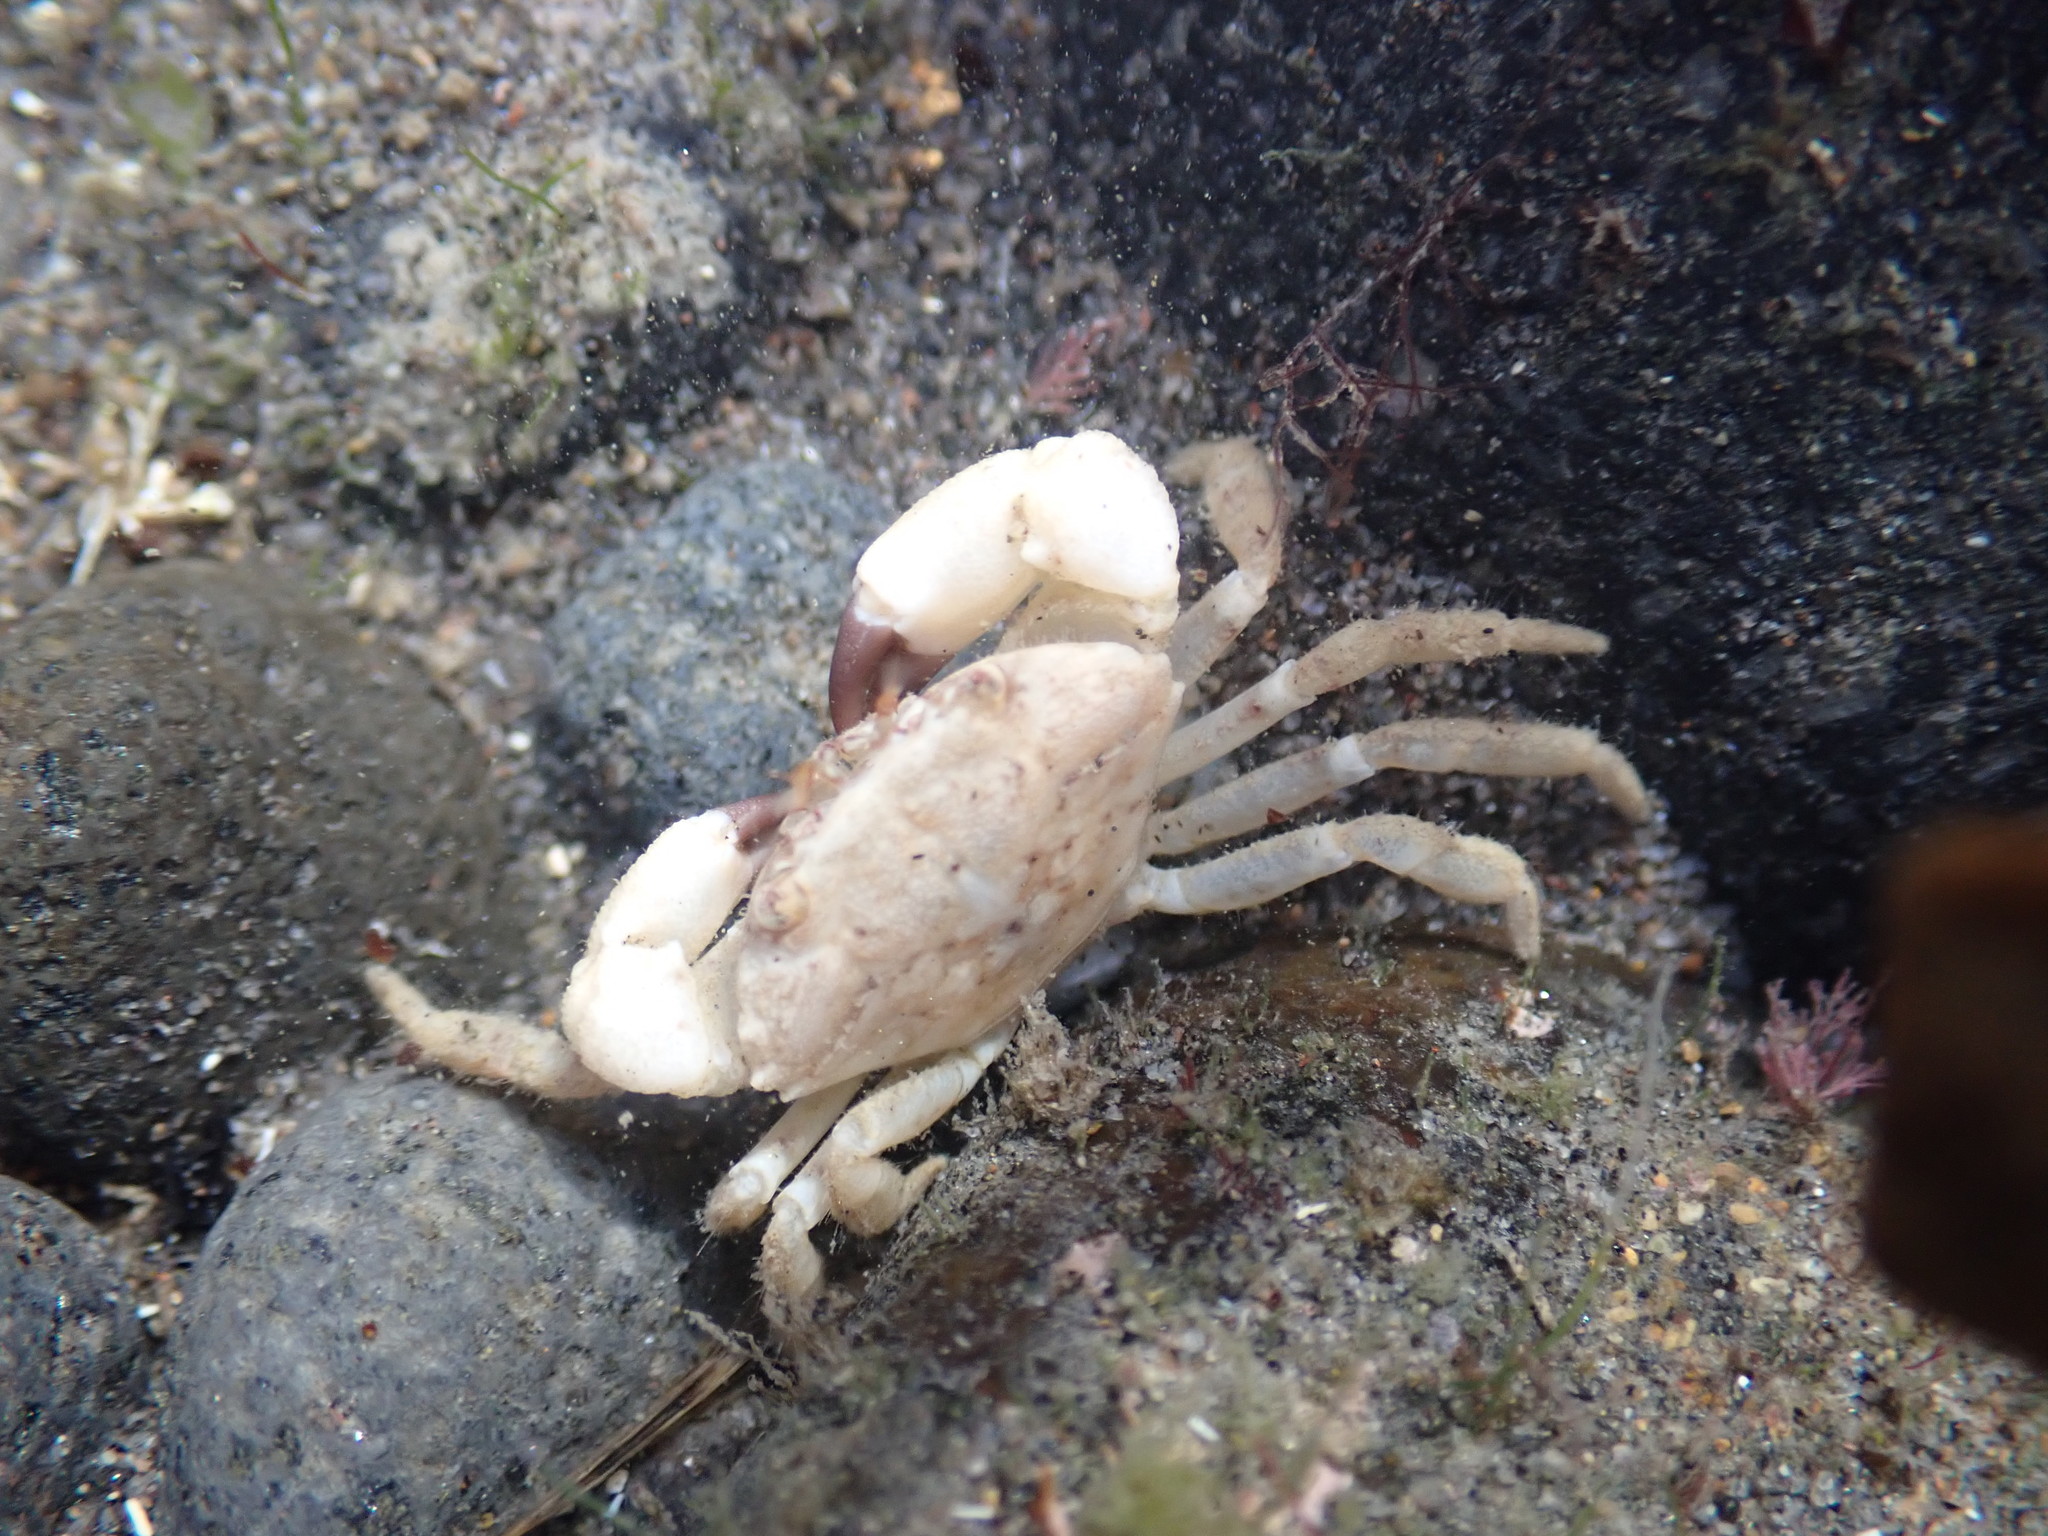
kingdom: Animalia
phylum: Arthropoda
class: Malacostraca
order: Decapoda
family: Oziidae
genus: Ozius
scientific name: Ozius deplanatus
